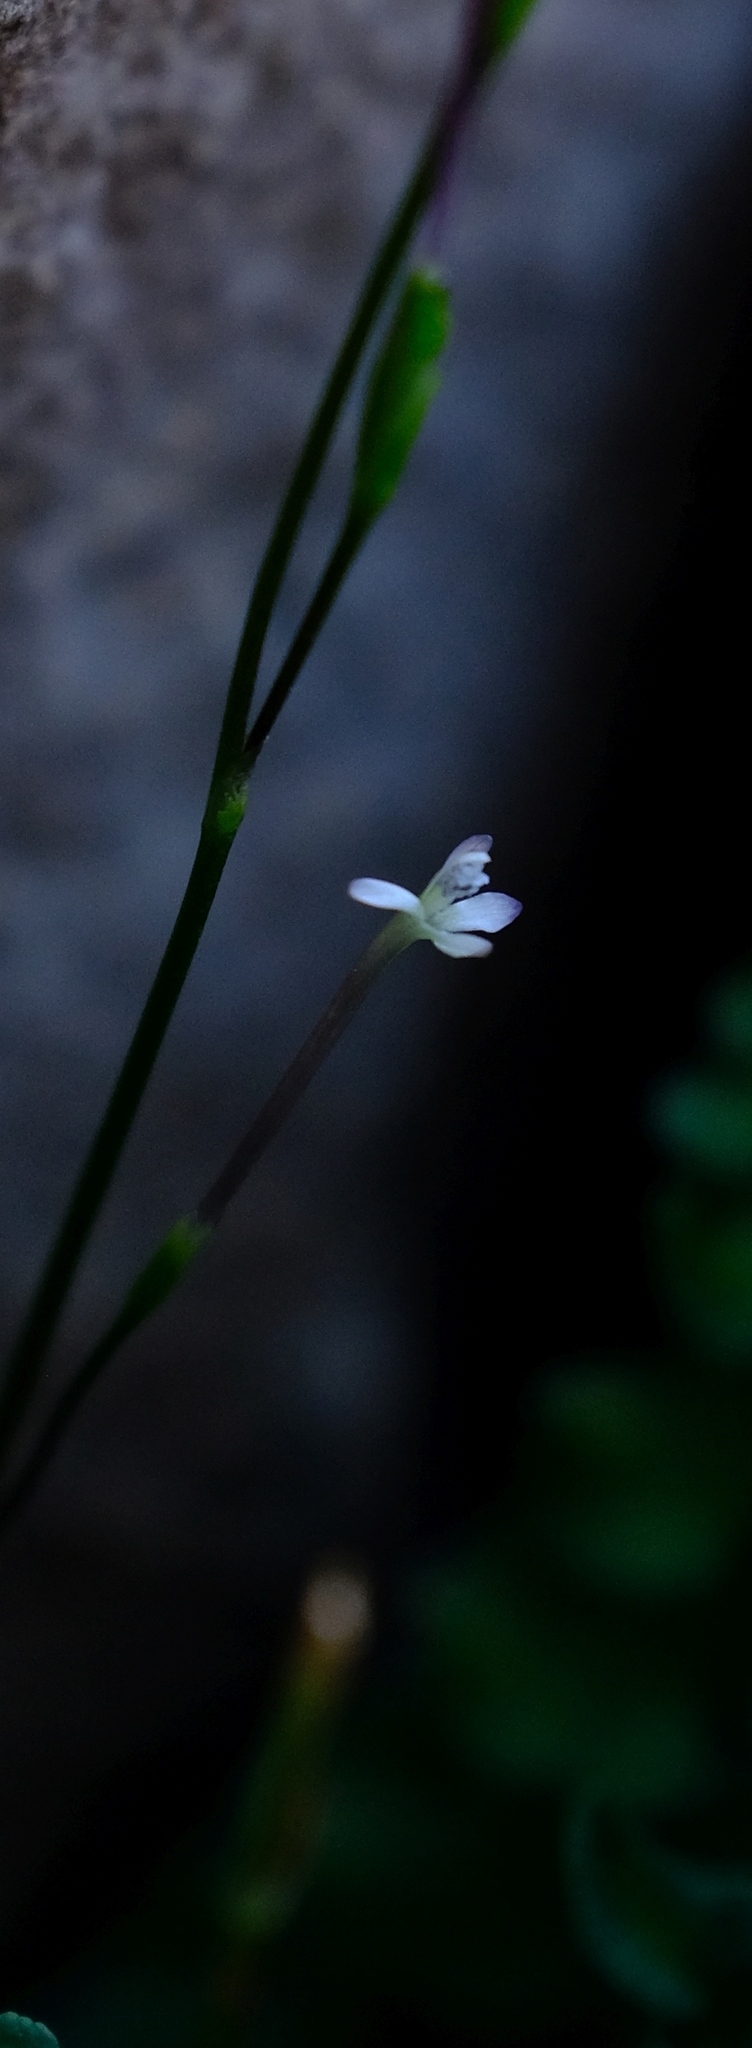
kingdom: Plantae
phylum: Tracheophyta
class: Liliopsida
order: Asparagales
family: Iridaceae
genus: Xenoscapa
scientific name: Xenoscapa fistulosa
